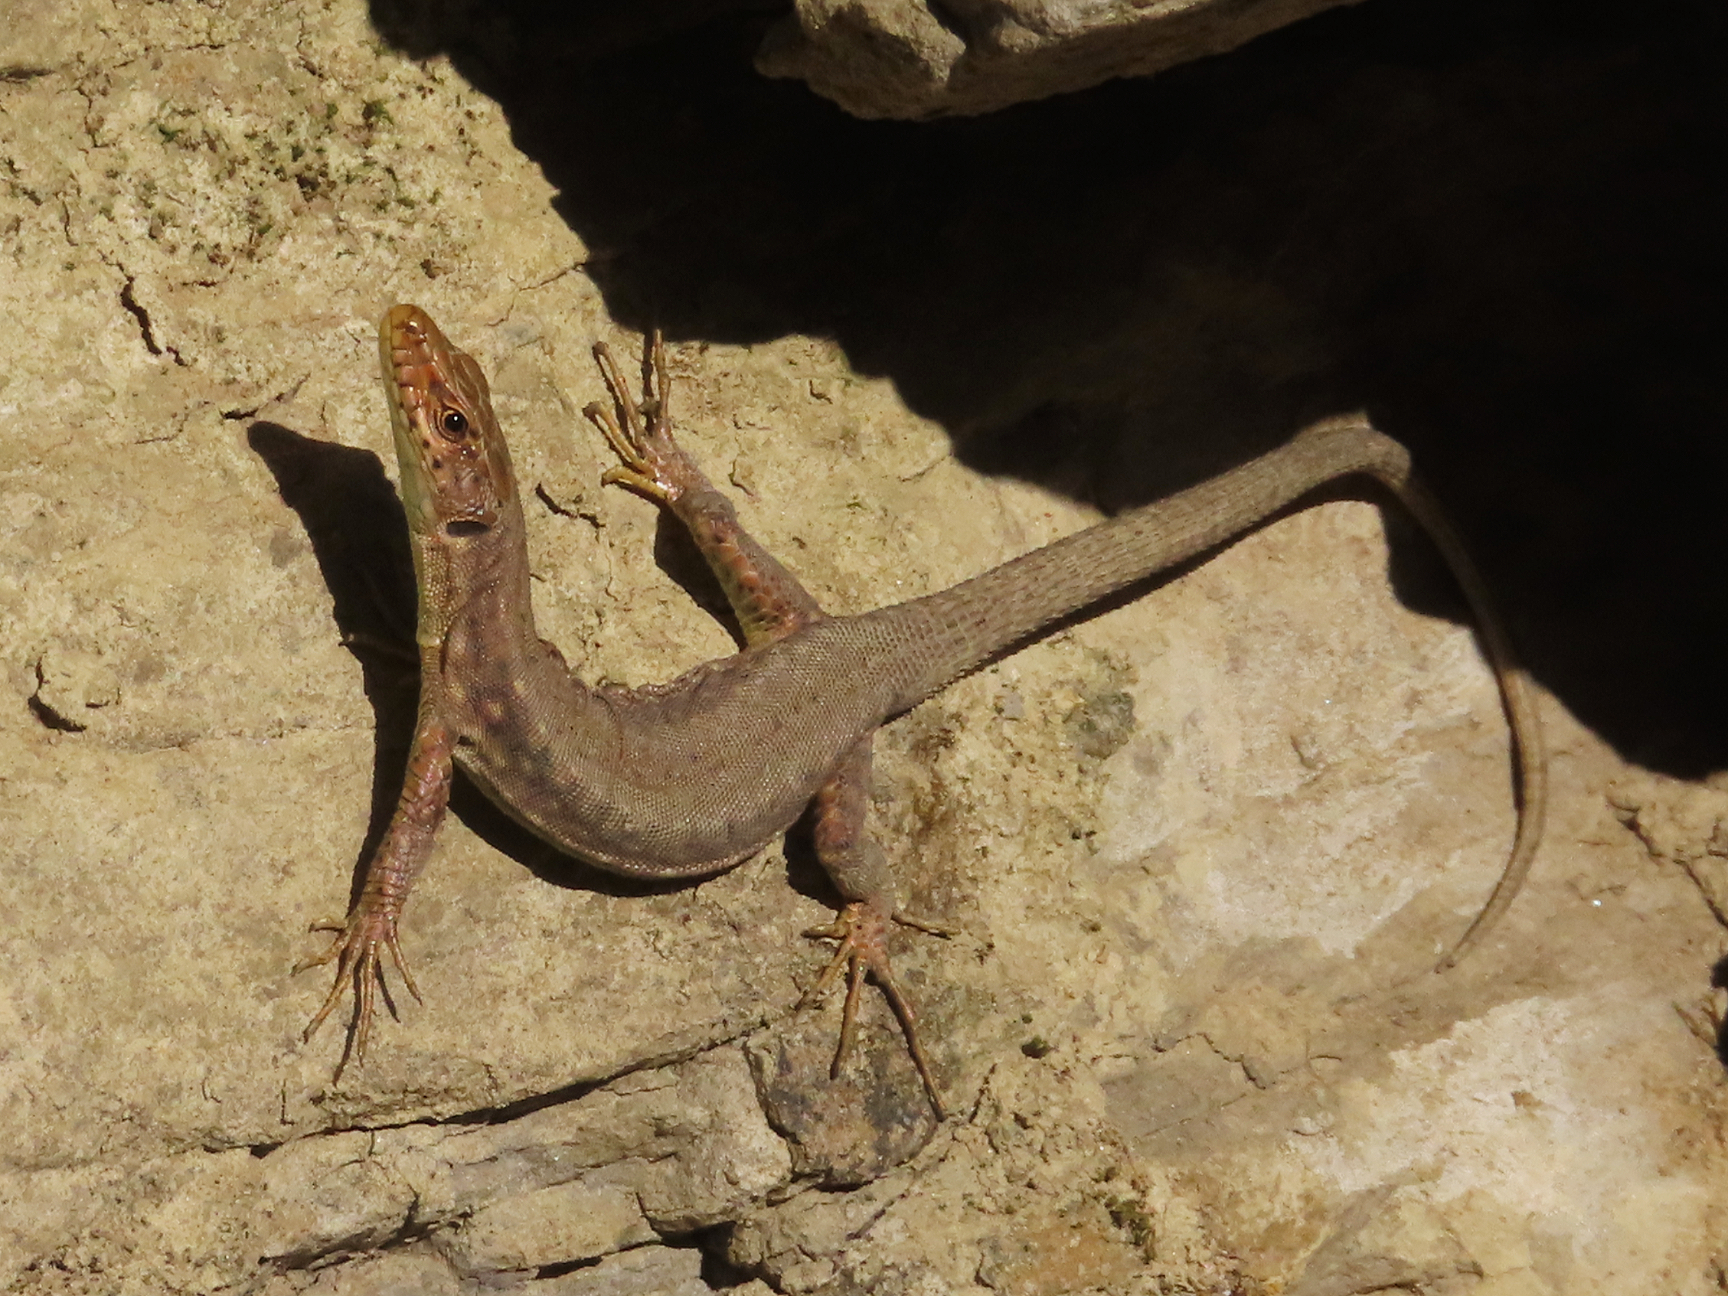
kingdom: Animalia
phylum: Chordata
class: Squamata
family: Lacertidae
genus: Darevskia
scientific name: Darevskia bithynica
